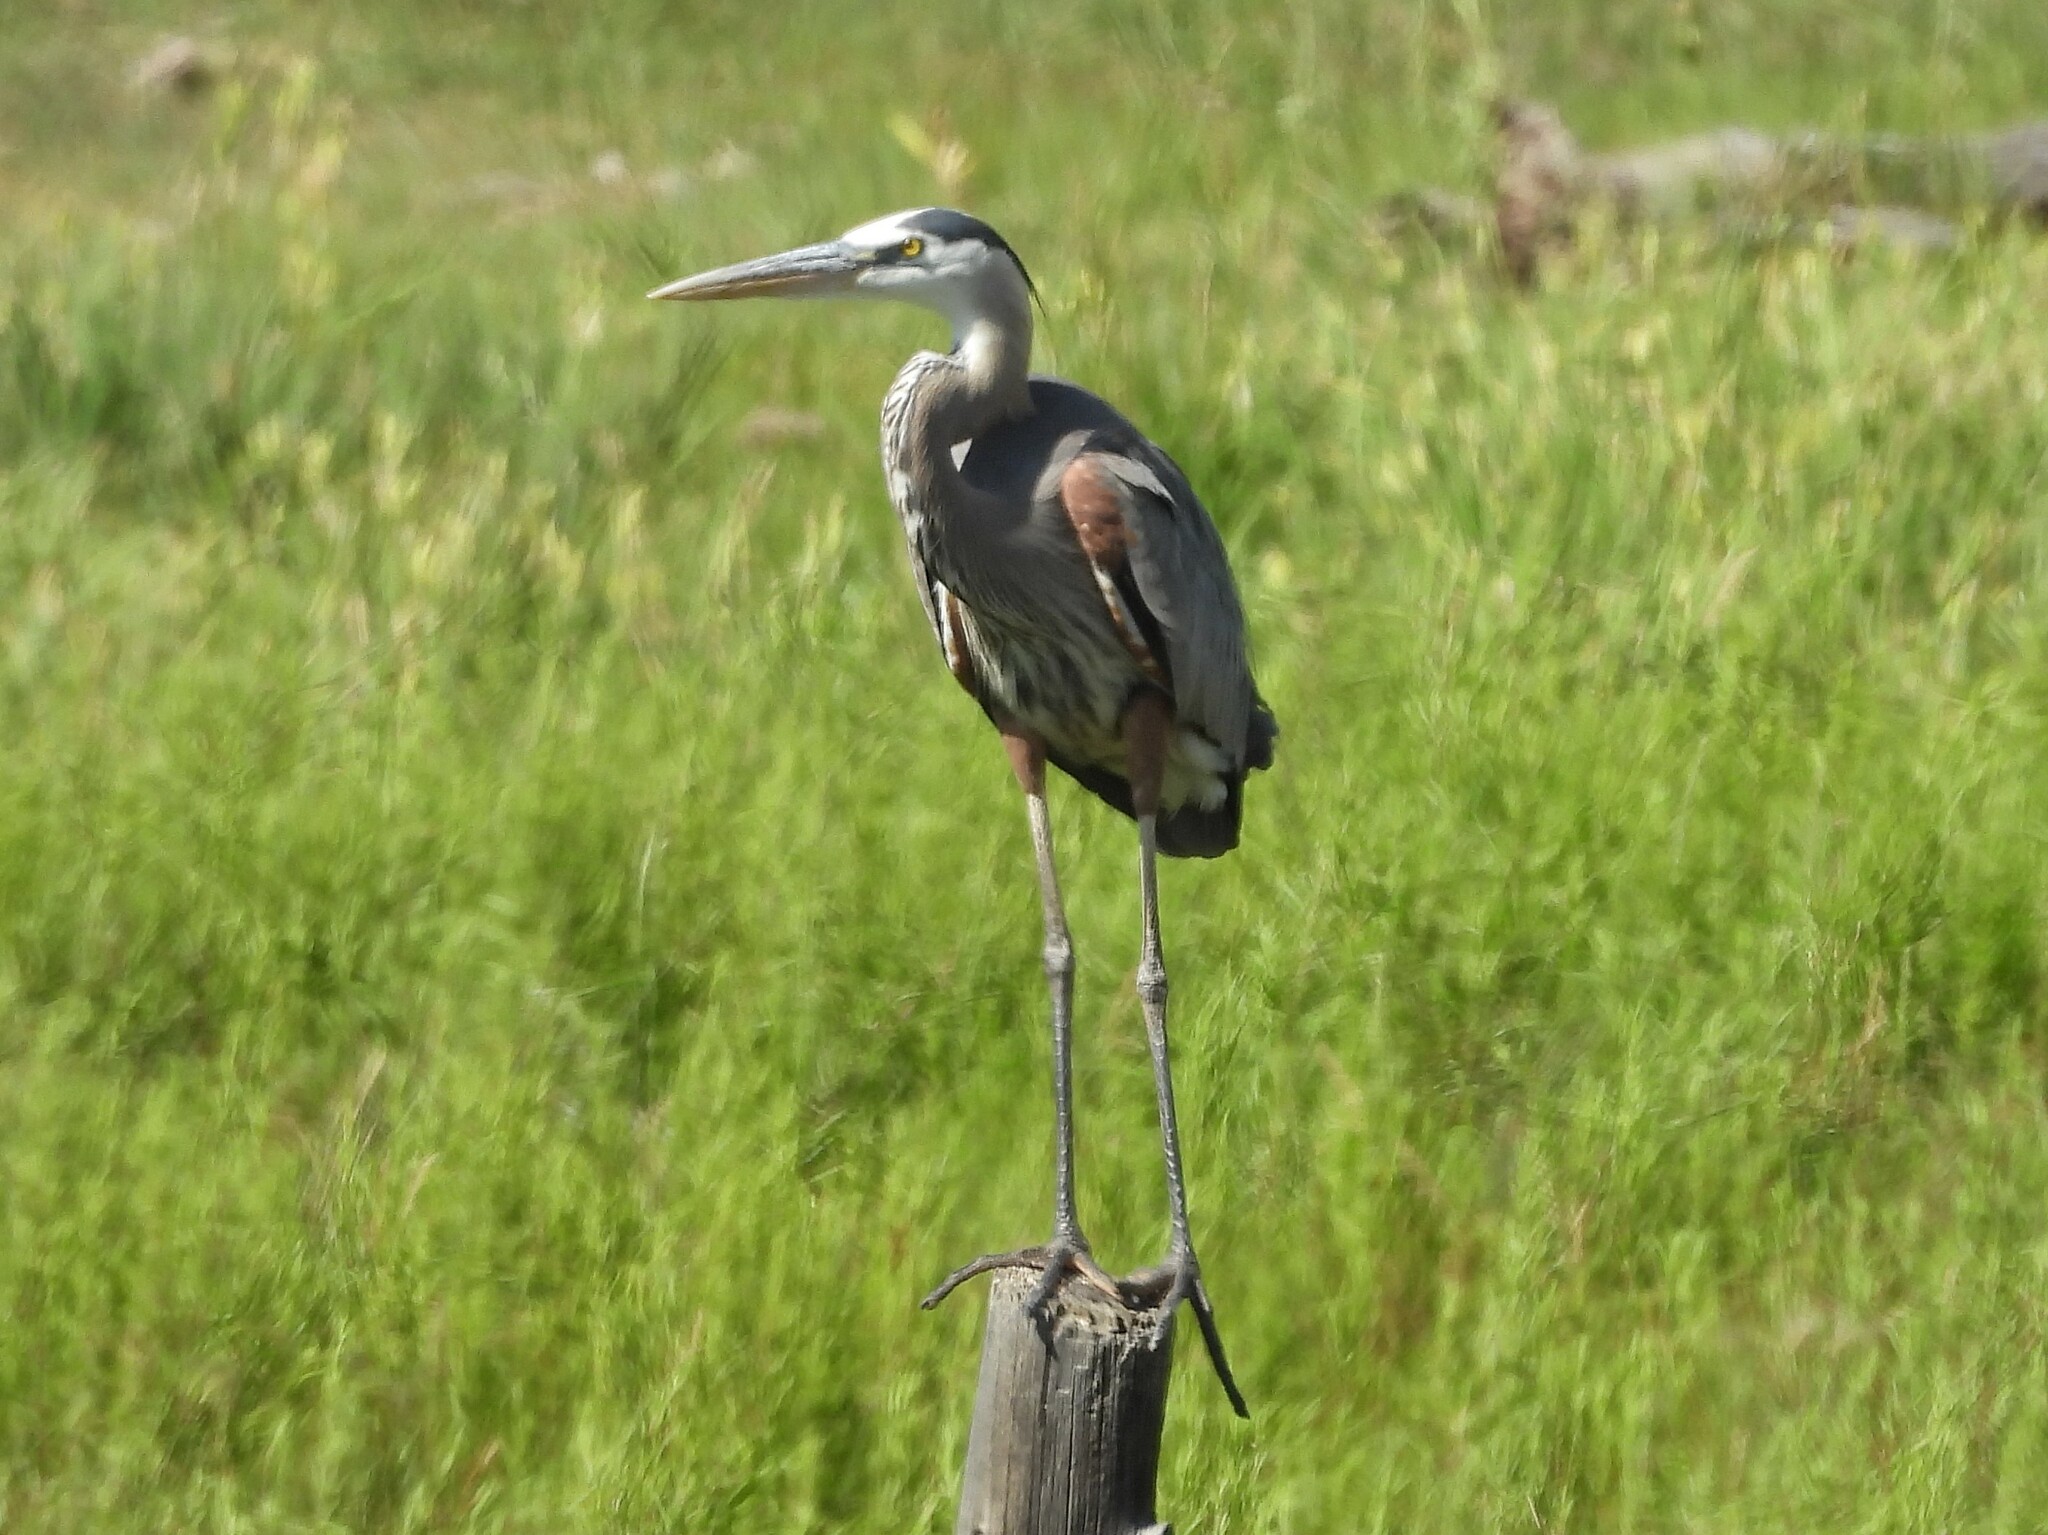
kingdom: Animalia
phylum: Chordata
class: Aves
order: Pelecaniformes
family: Ardeidae
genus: Ardea
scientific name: Ardea herodias
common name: Great blue heron
